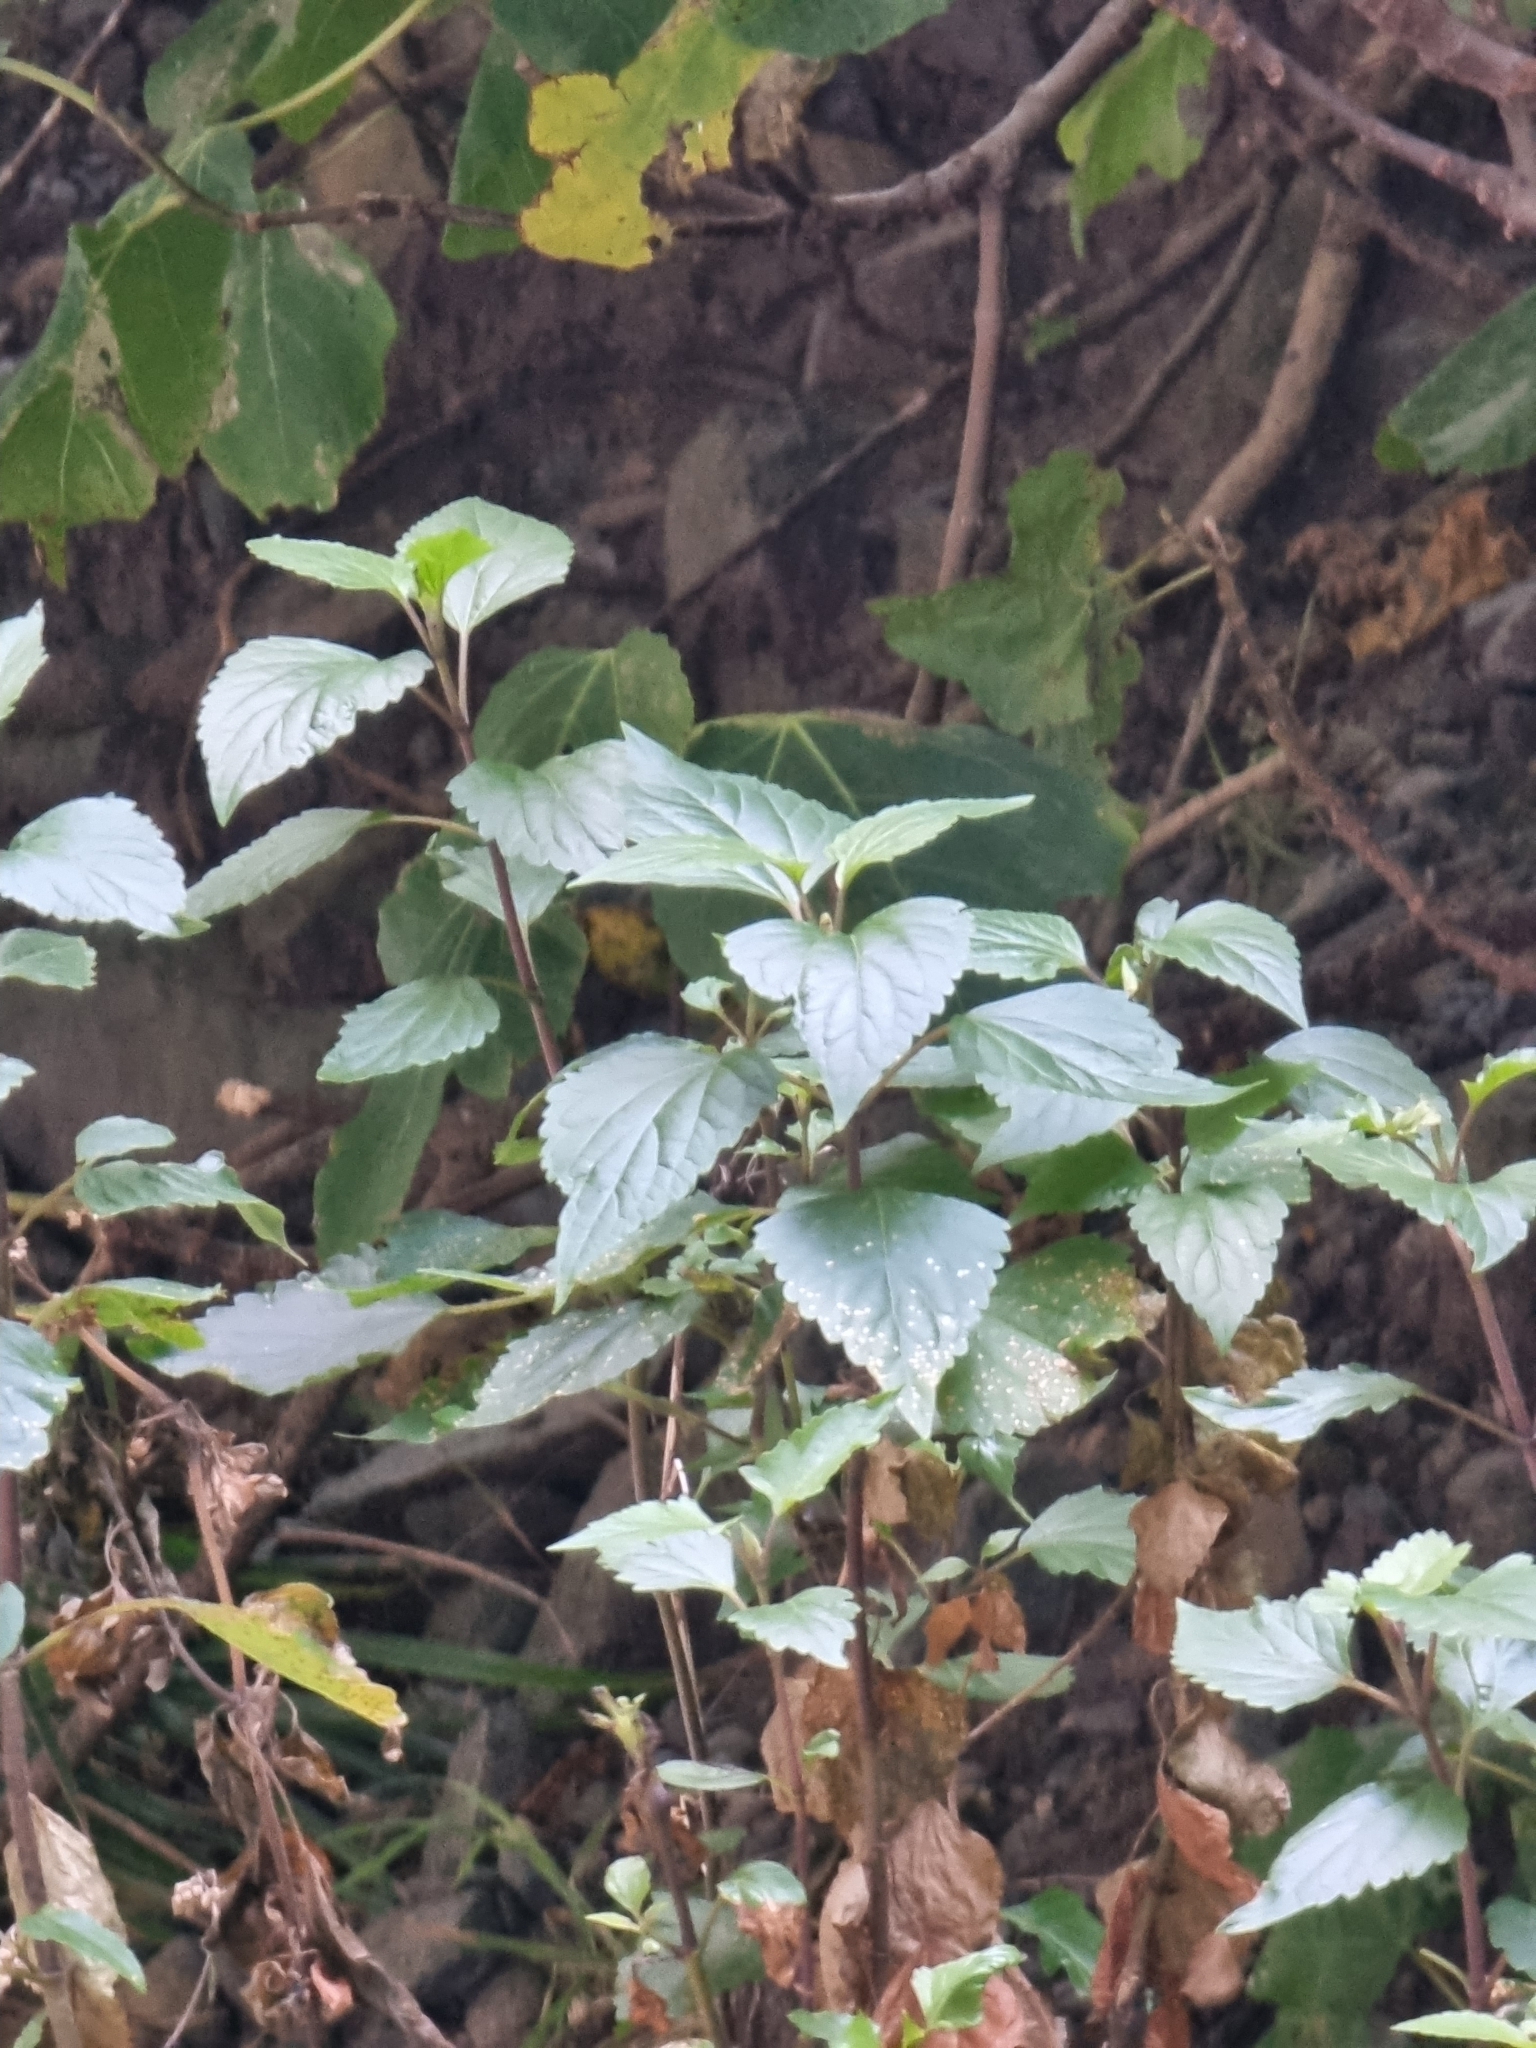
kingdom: Plantae
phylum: Tracheophyta
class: Magnoliopsida
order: Asterales
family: Asteraceae
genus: Ageratina
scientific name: Ageratina adenophora
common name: Sticky snakeroot
